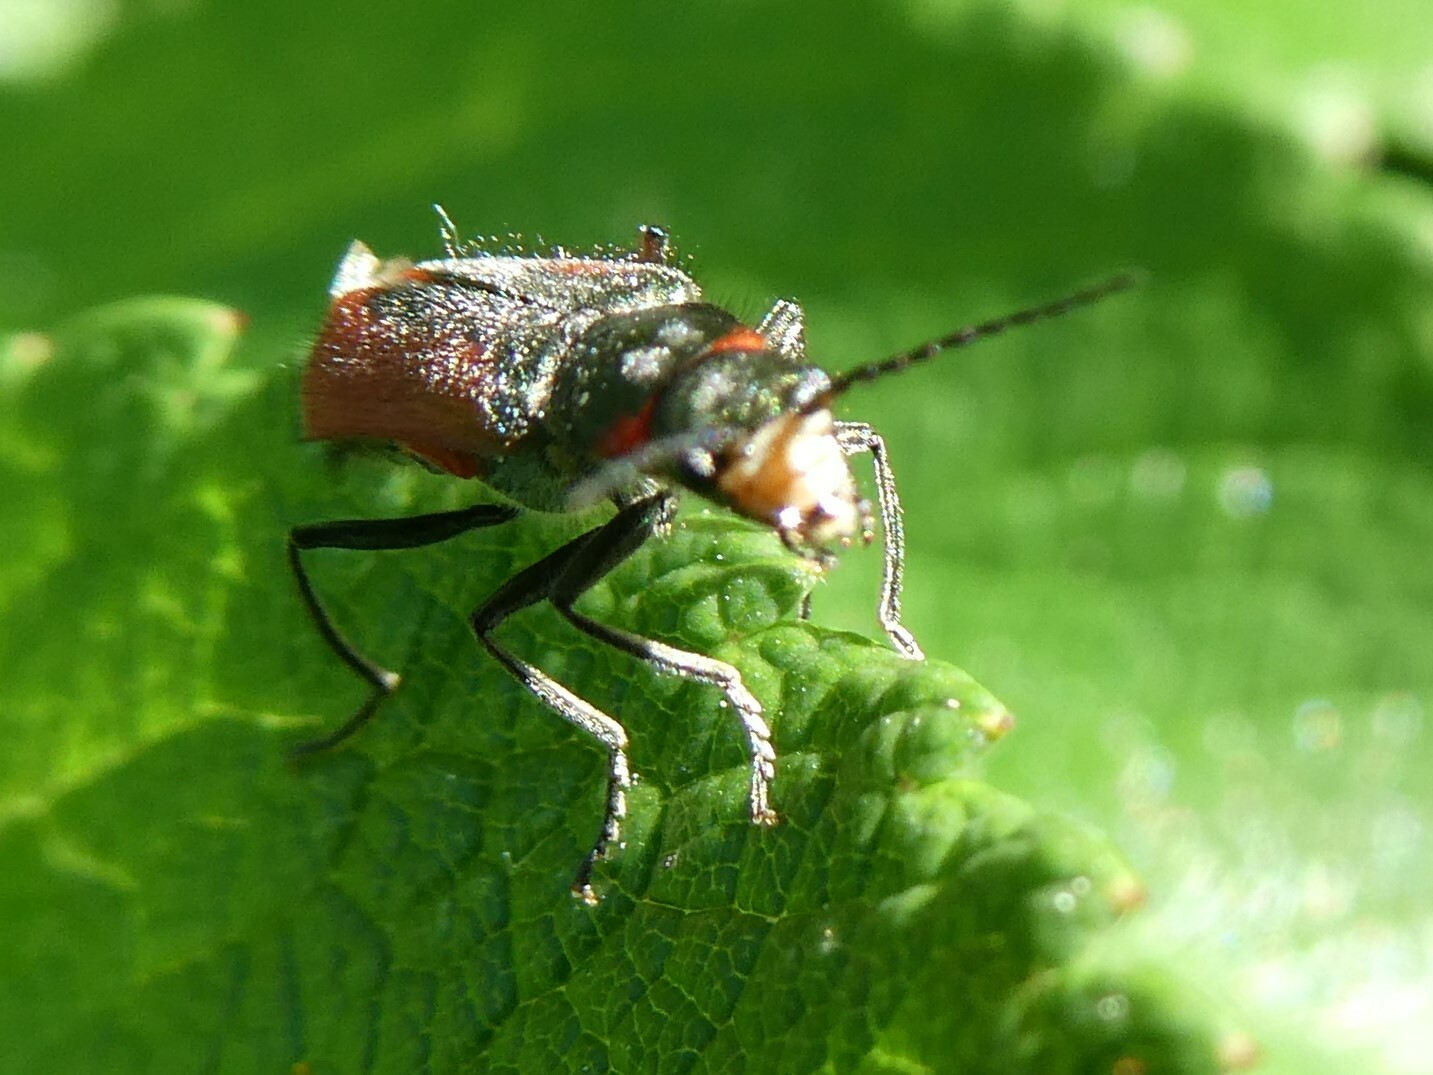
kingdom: Animalia
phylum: Arthropoda
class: Insecta
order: Coleoptera
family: Melyridae
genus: Malachius
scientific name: Malachius aeneus
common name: Scarlet malachite beetle
